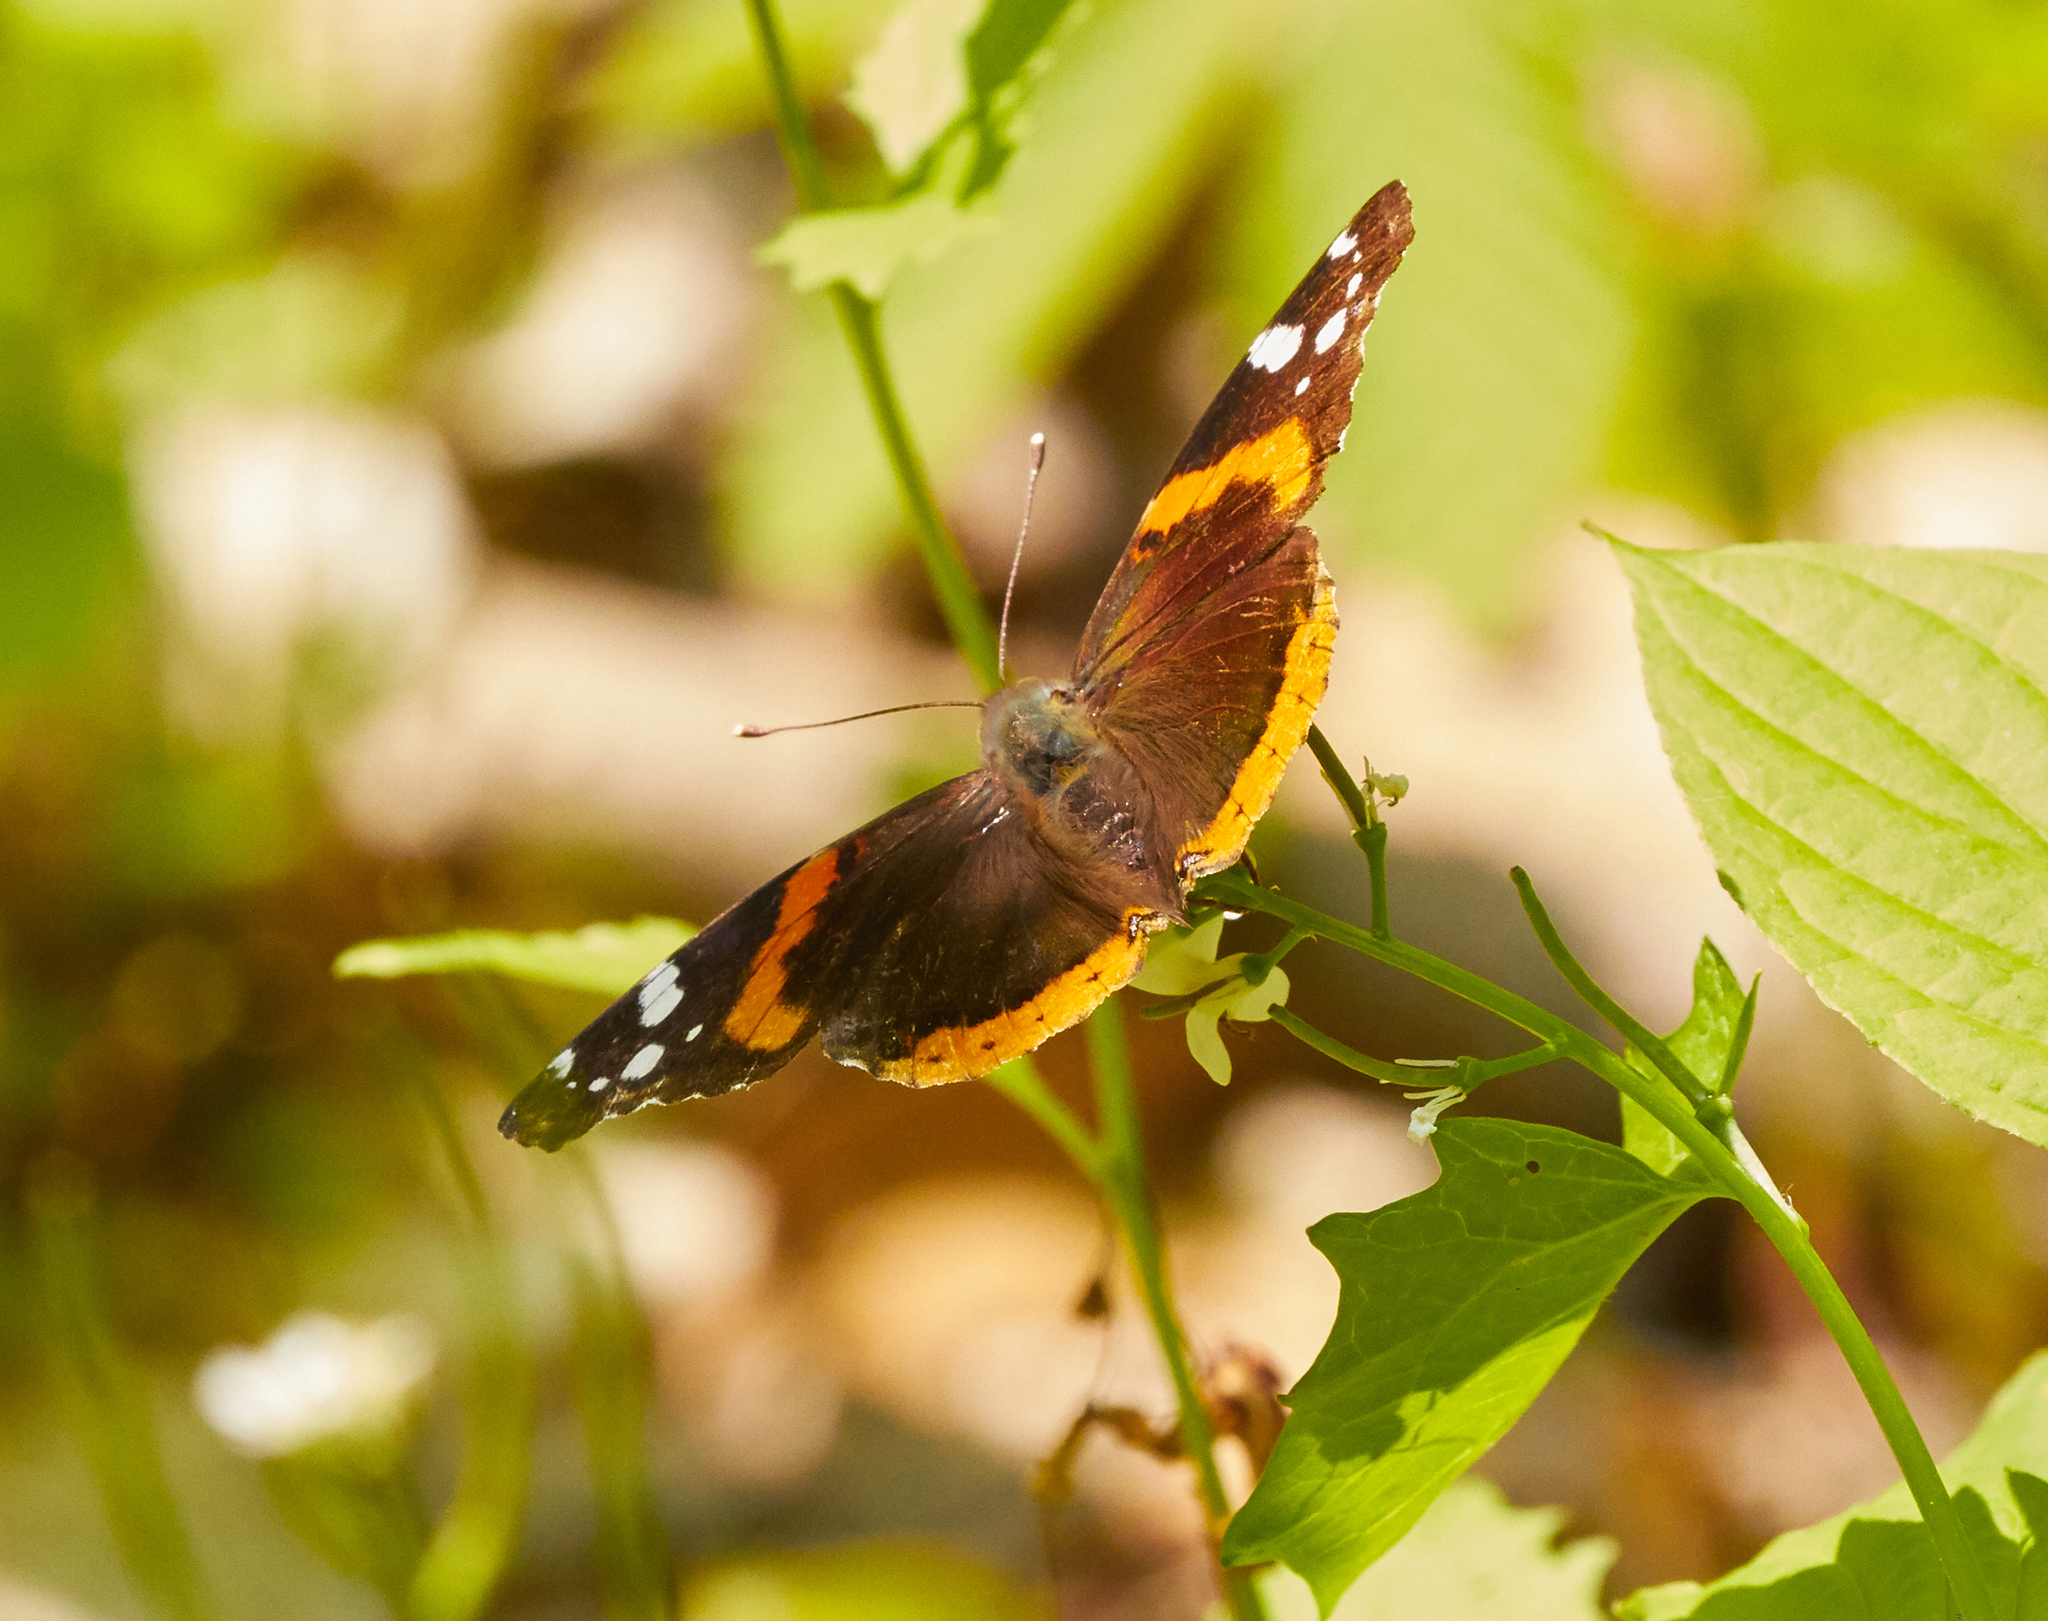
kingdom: Animalia
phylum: Arthropoda
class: Insecta
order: Lepidoptera
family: Nymphalidae
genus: Vanessa
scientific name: Vanessa atalanta
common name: Red admiral
